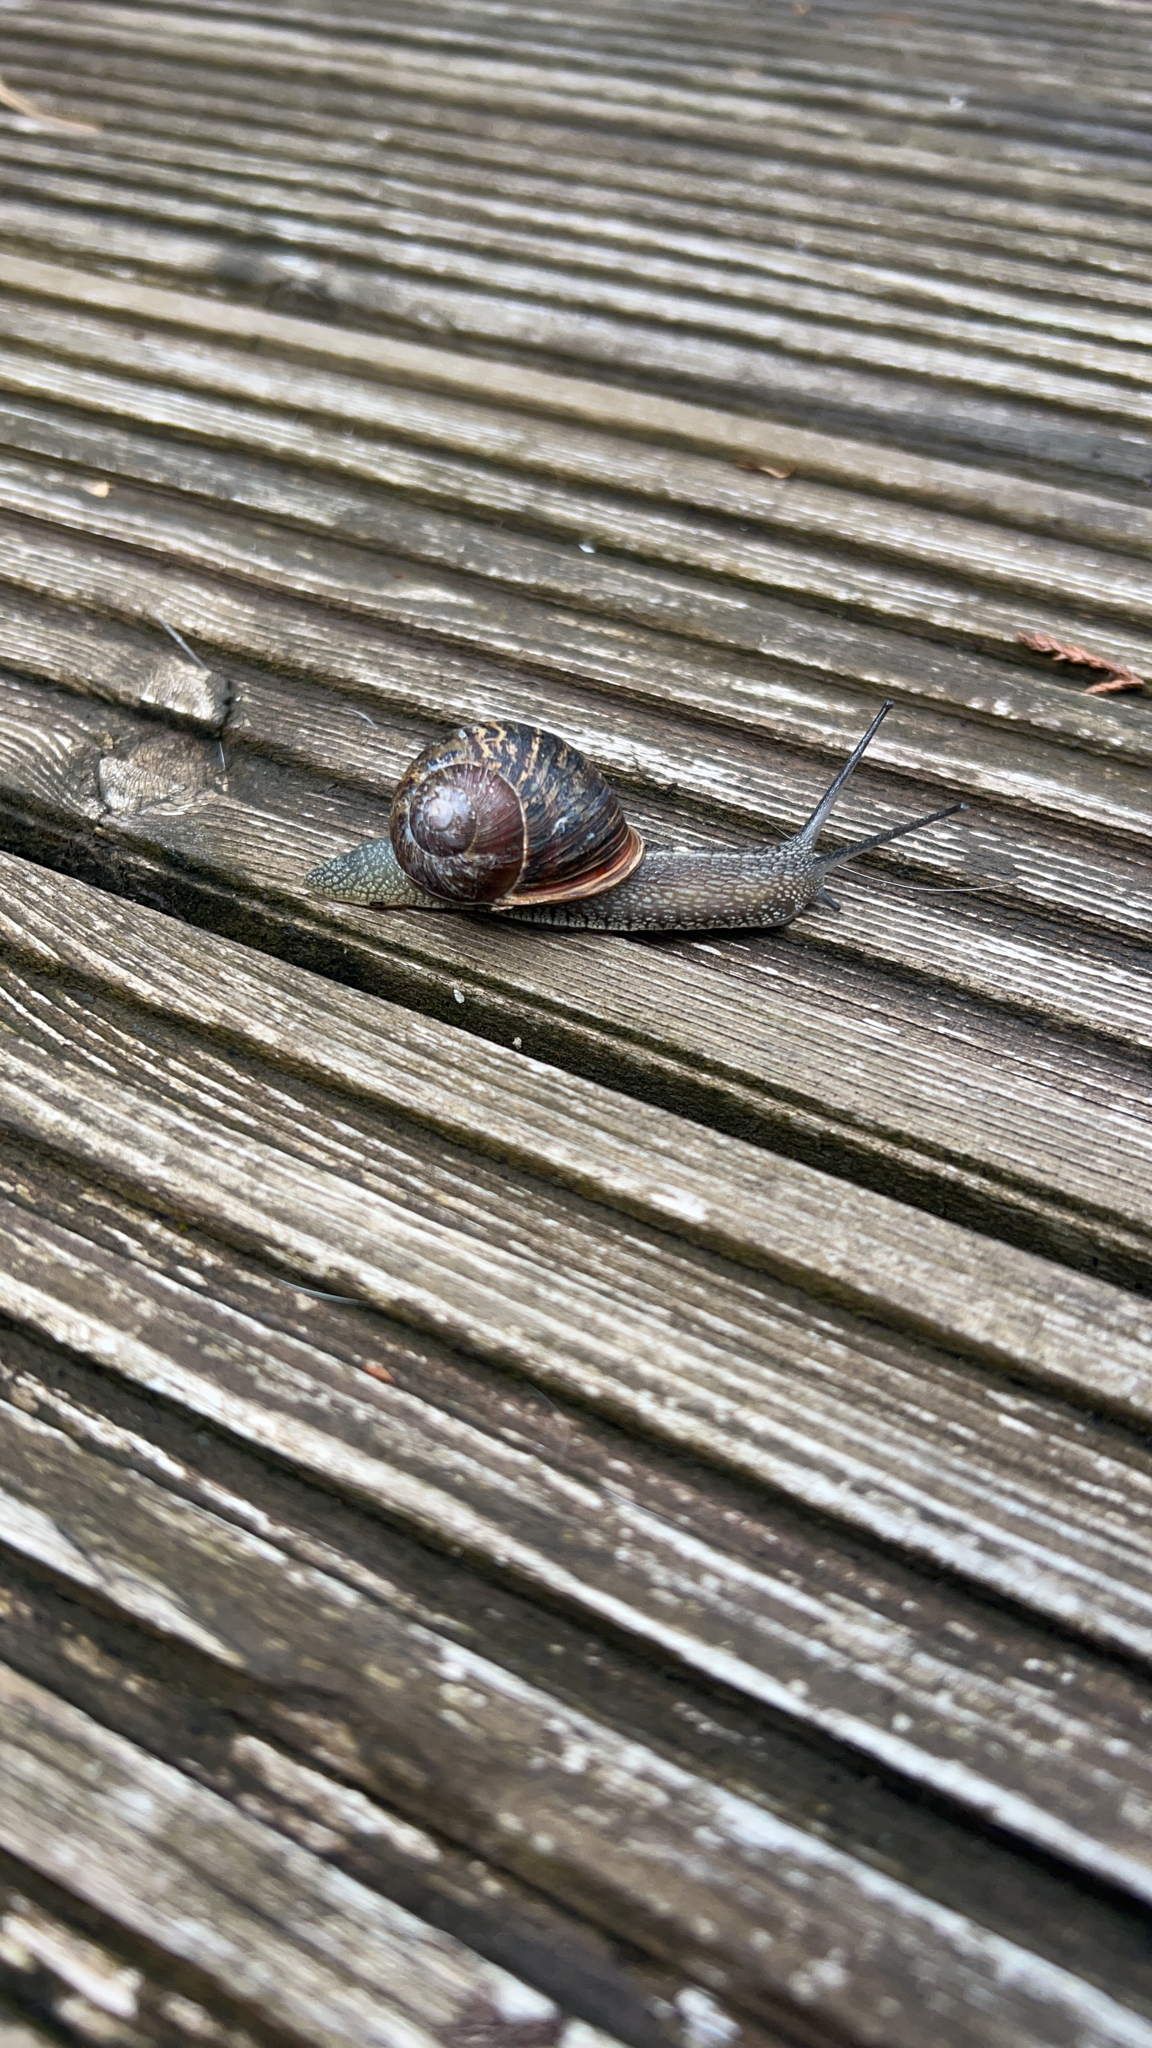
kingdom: Animalia
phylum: Mollusca
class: Gastropoda
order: Stylommatophora
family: Helicidae
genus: Cornu
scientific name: Cornu aspersum
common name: Brown garden snail
